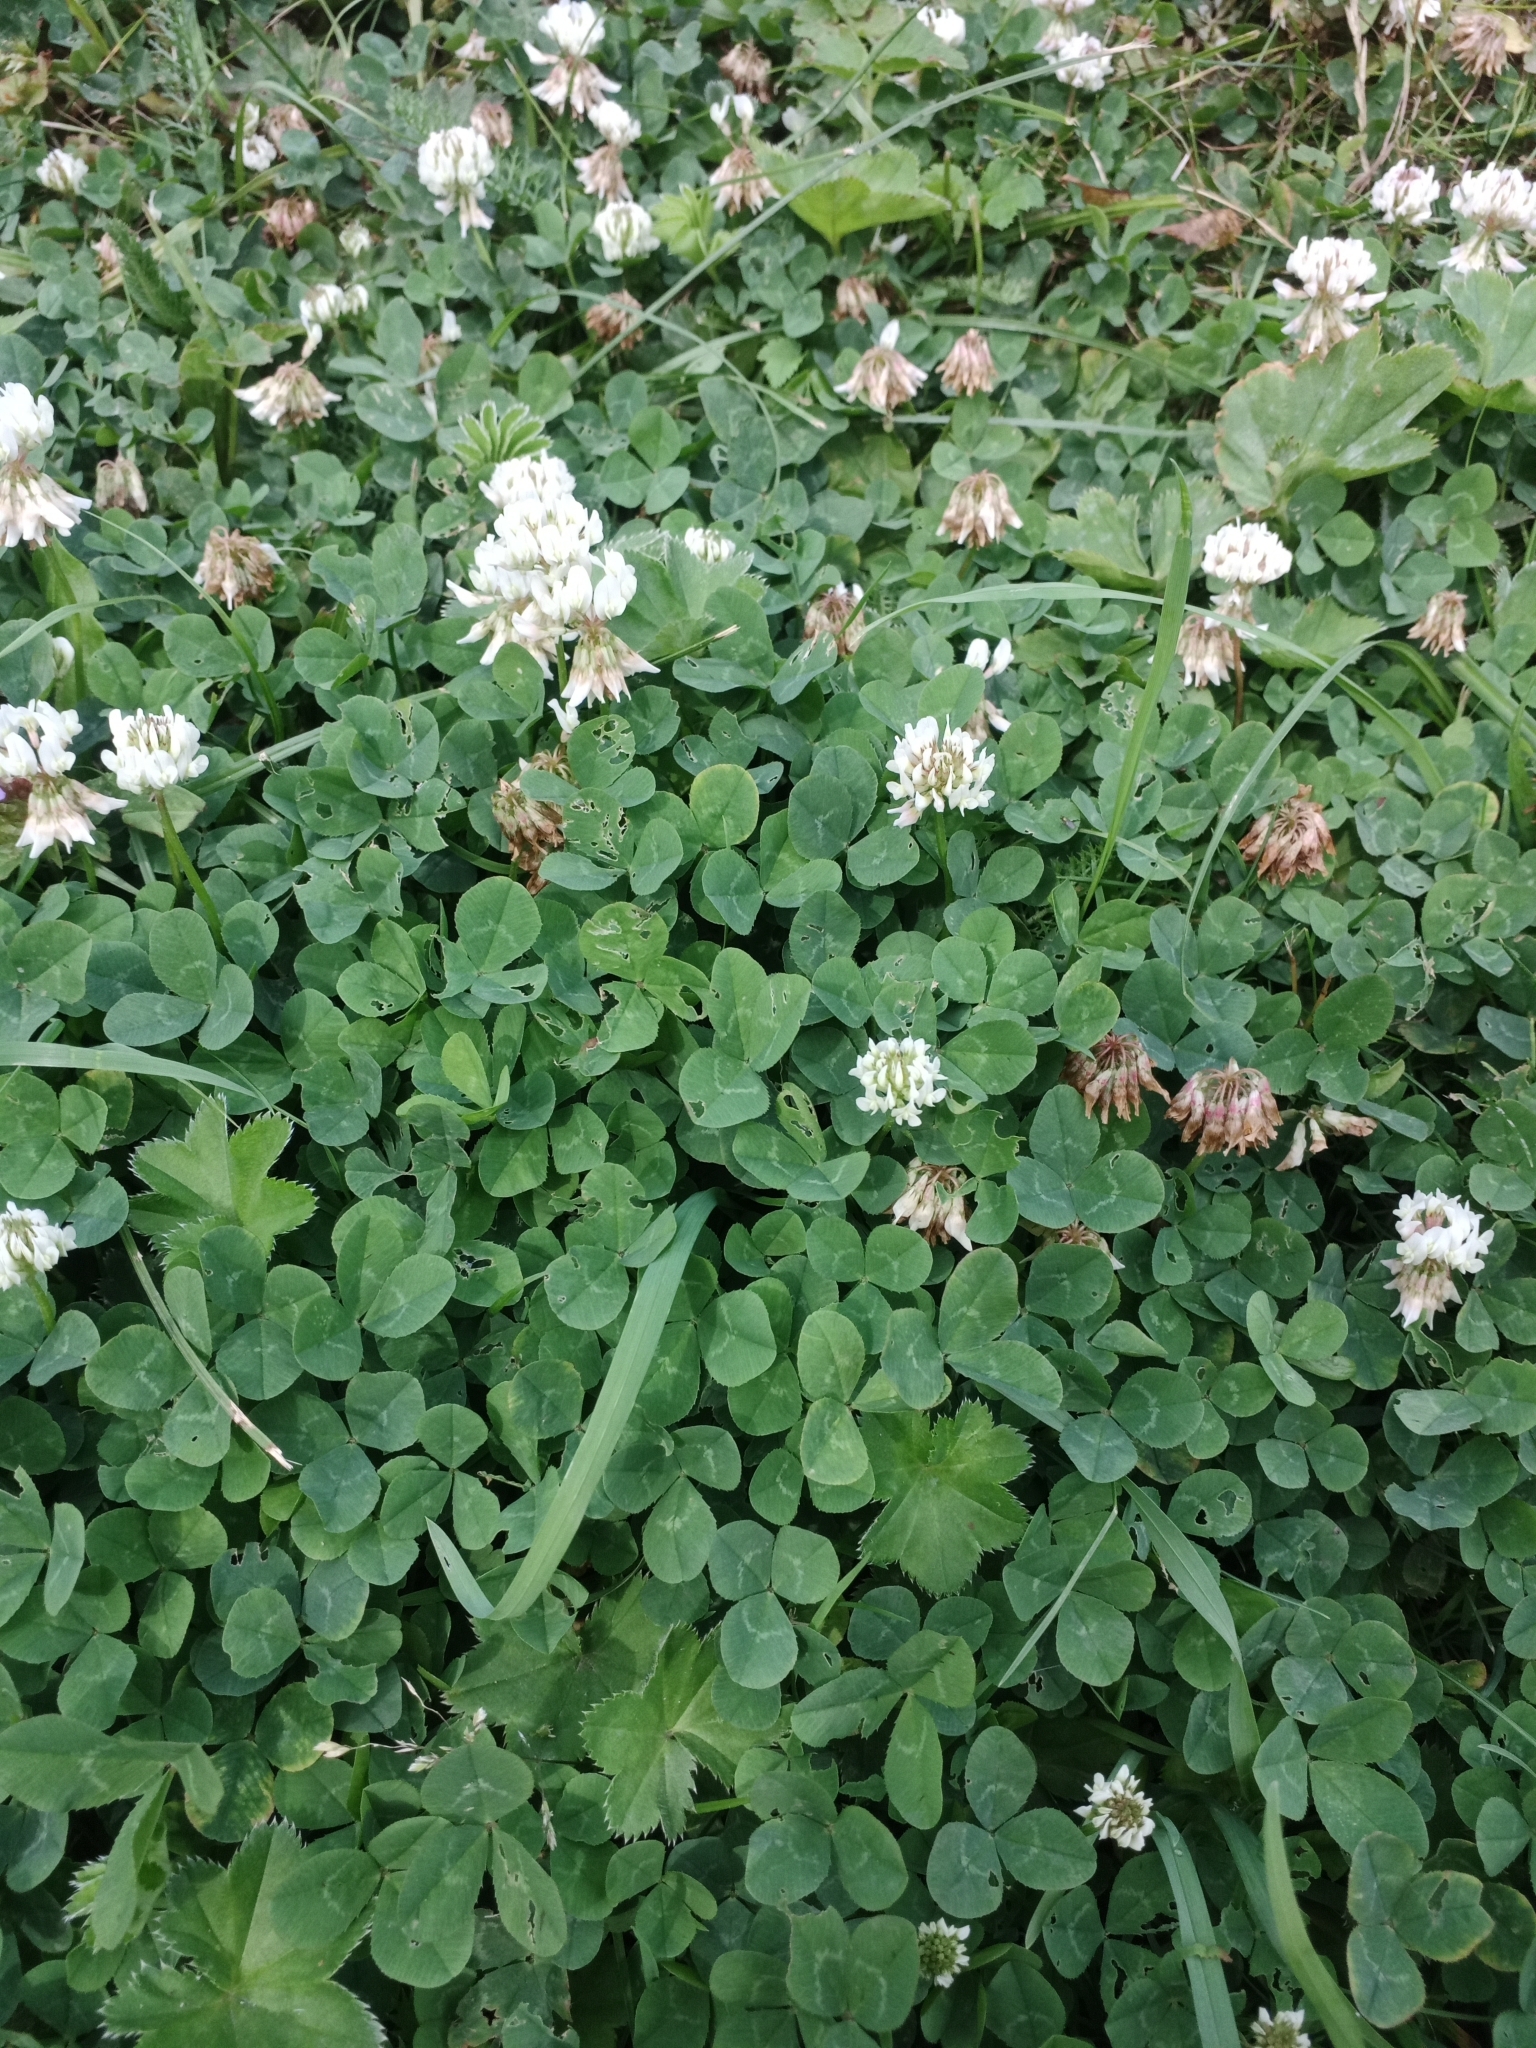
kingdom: Plantae
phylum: Tracheophyta
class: Magnoliopsida
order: Fabales
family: Fabaceae
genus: Trifolium
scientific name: Trifolium repens
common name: White clover
